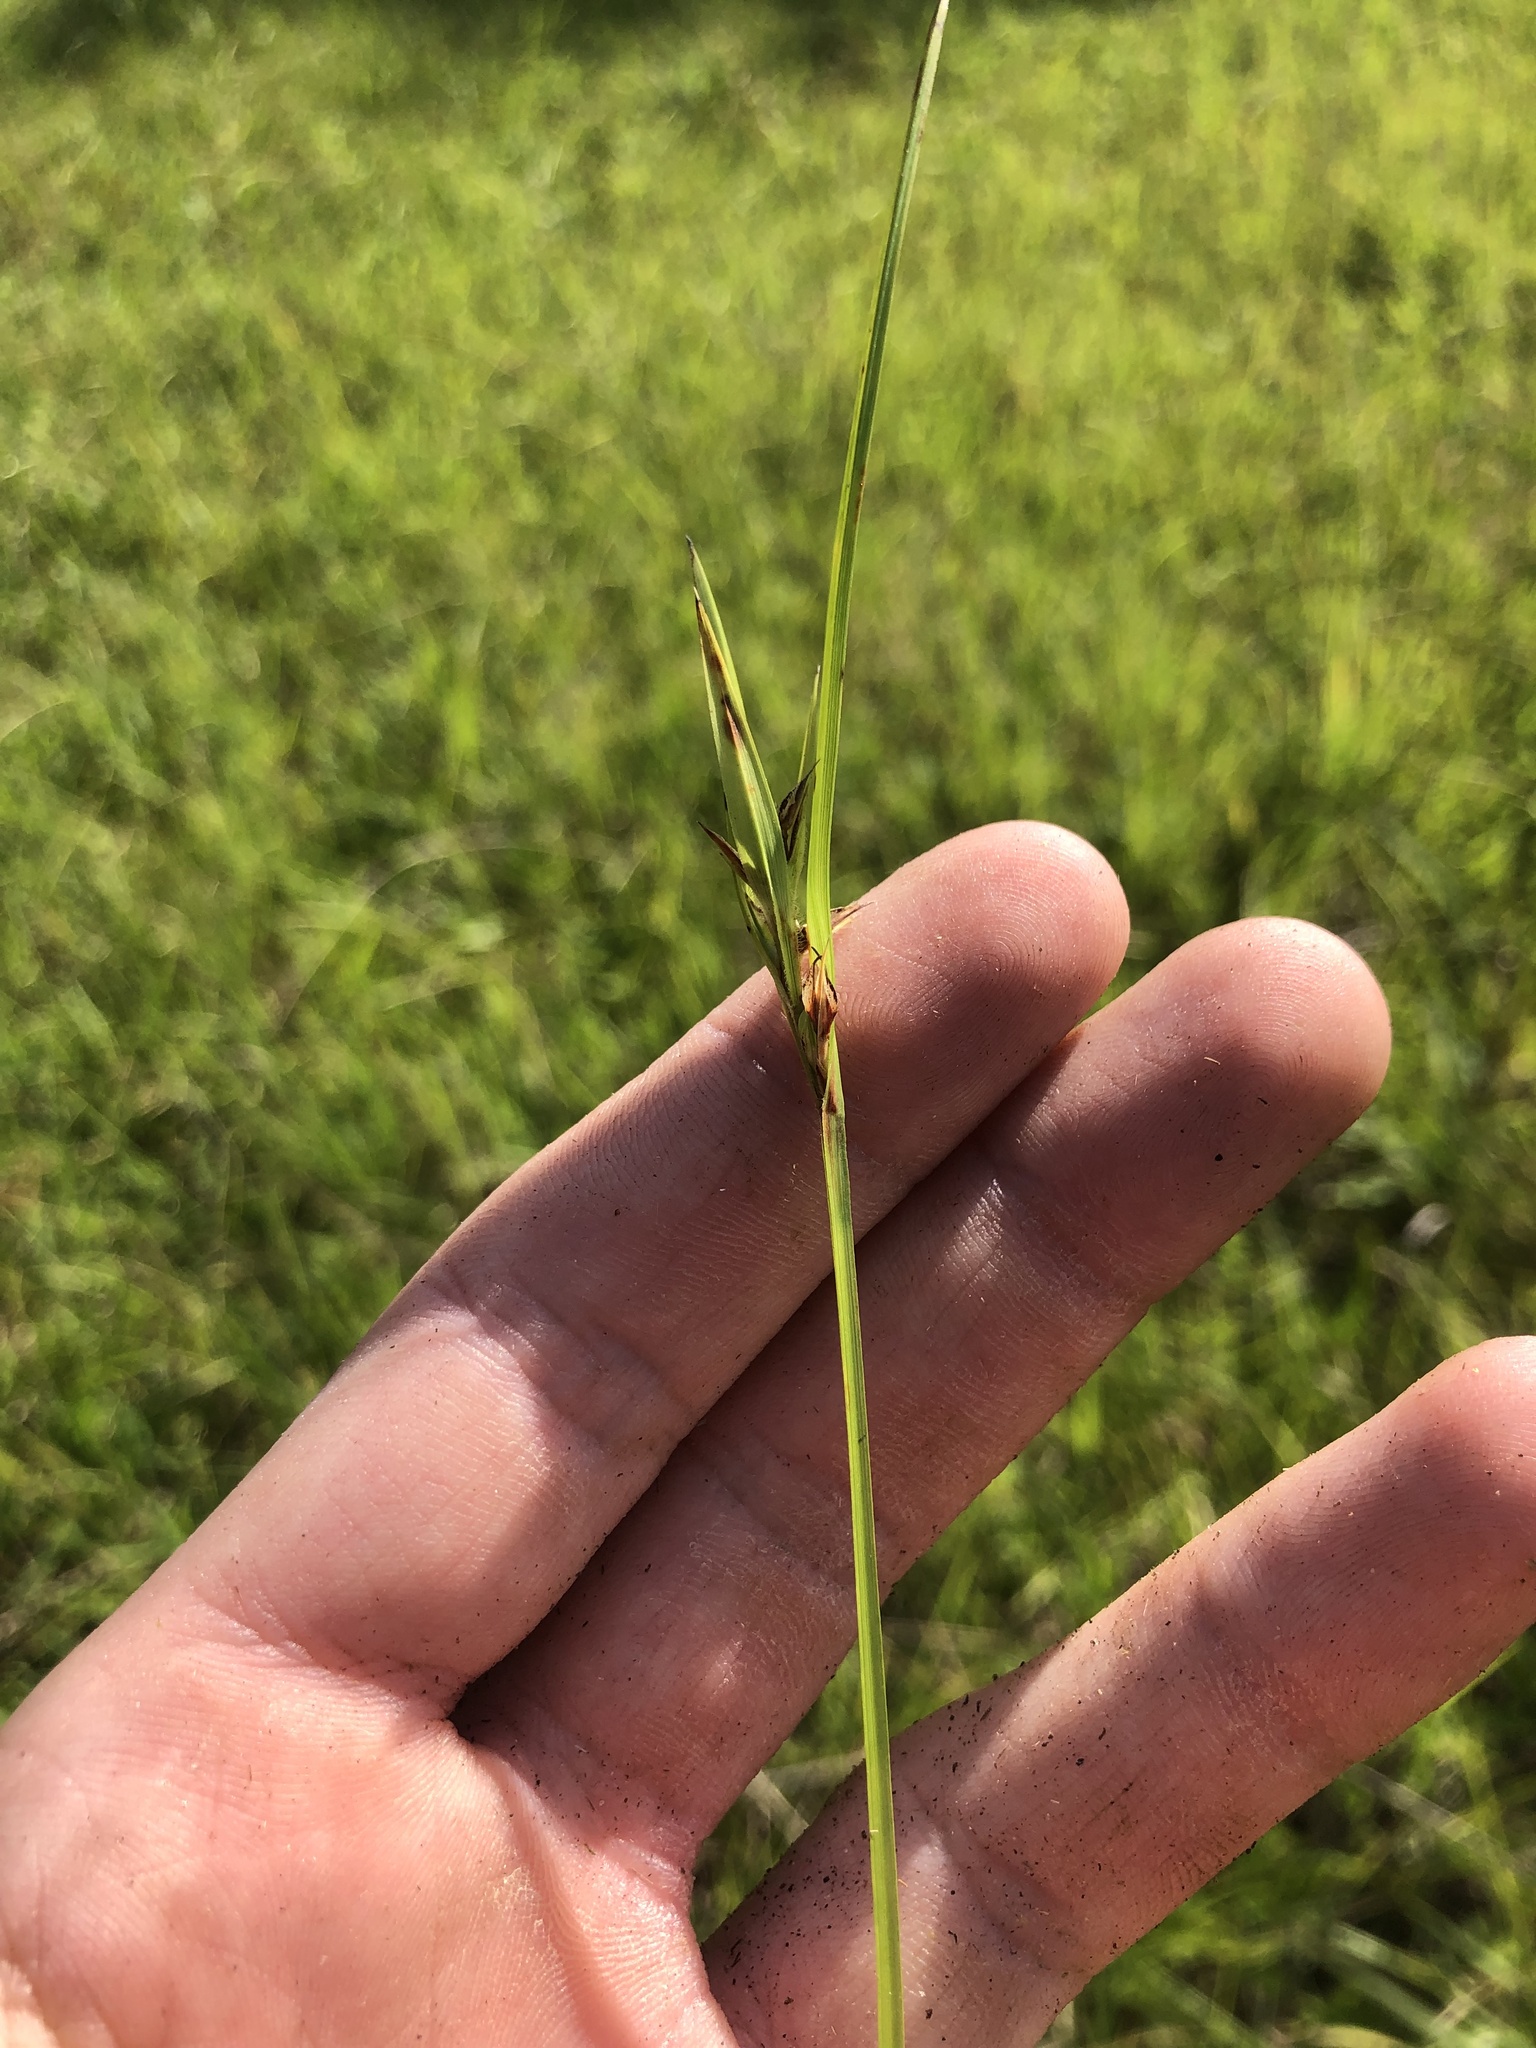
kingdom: Plantae
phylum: Tracheophyta
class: Liliopsida
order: Poales
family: Cyperaceae
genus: Scleria
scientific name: Scleria oligantha
